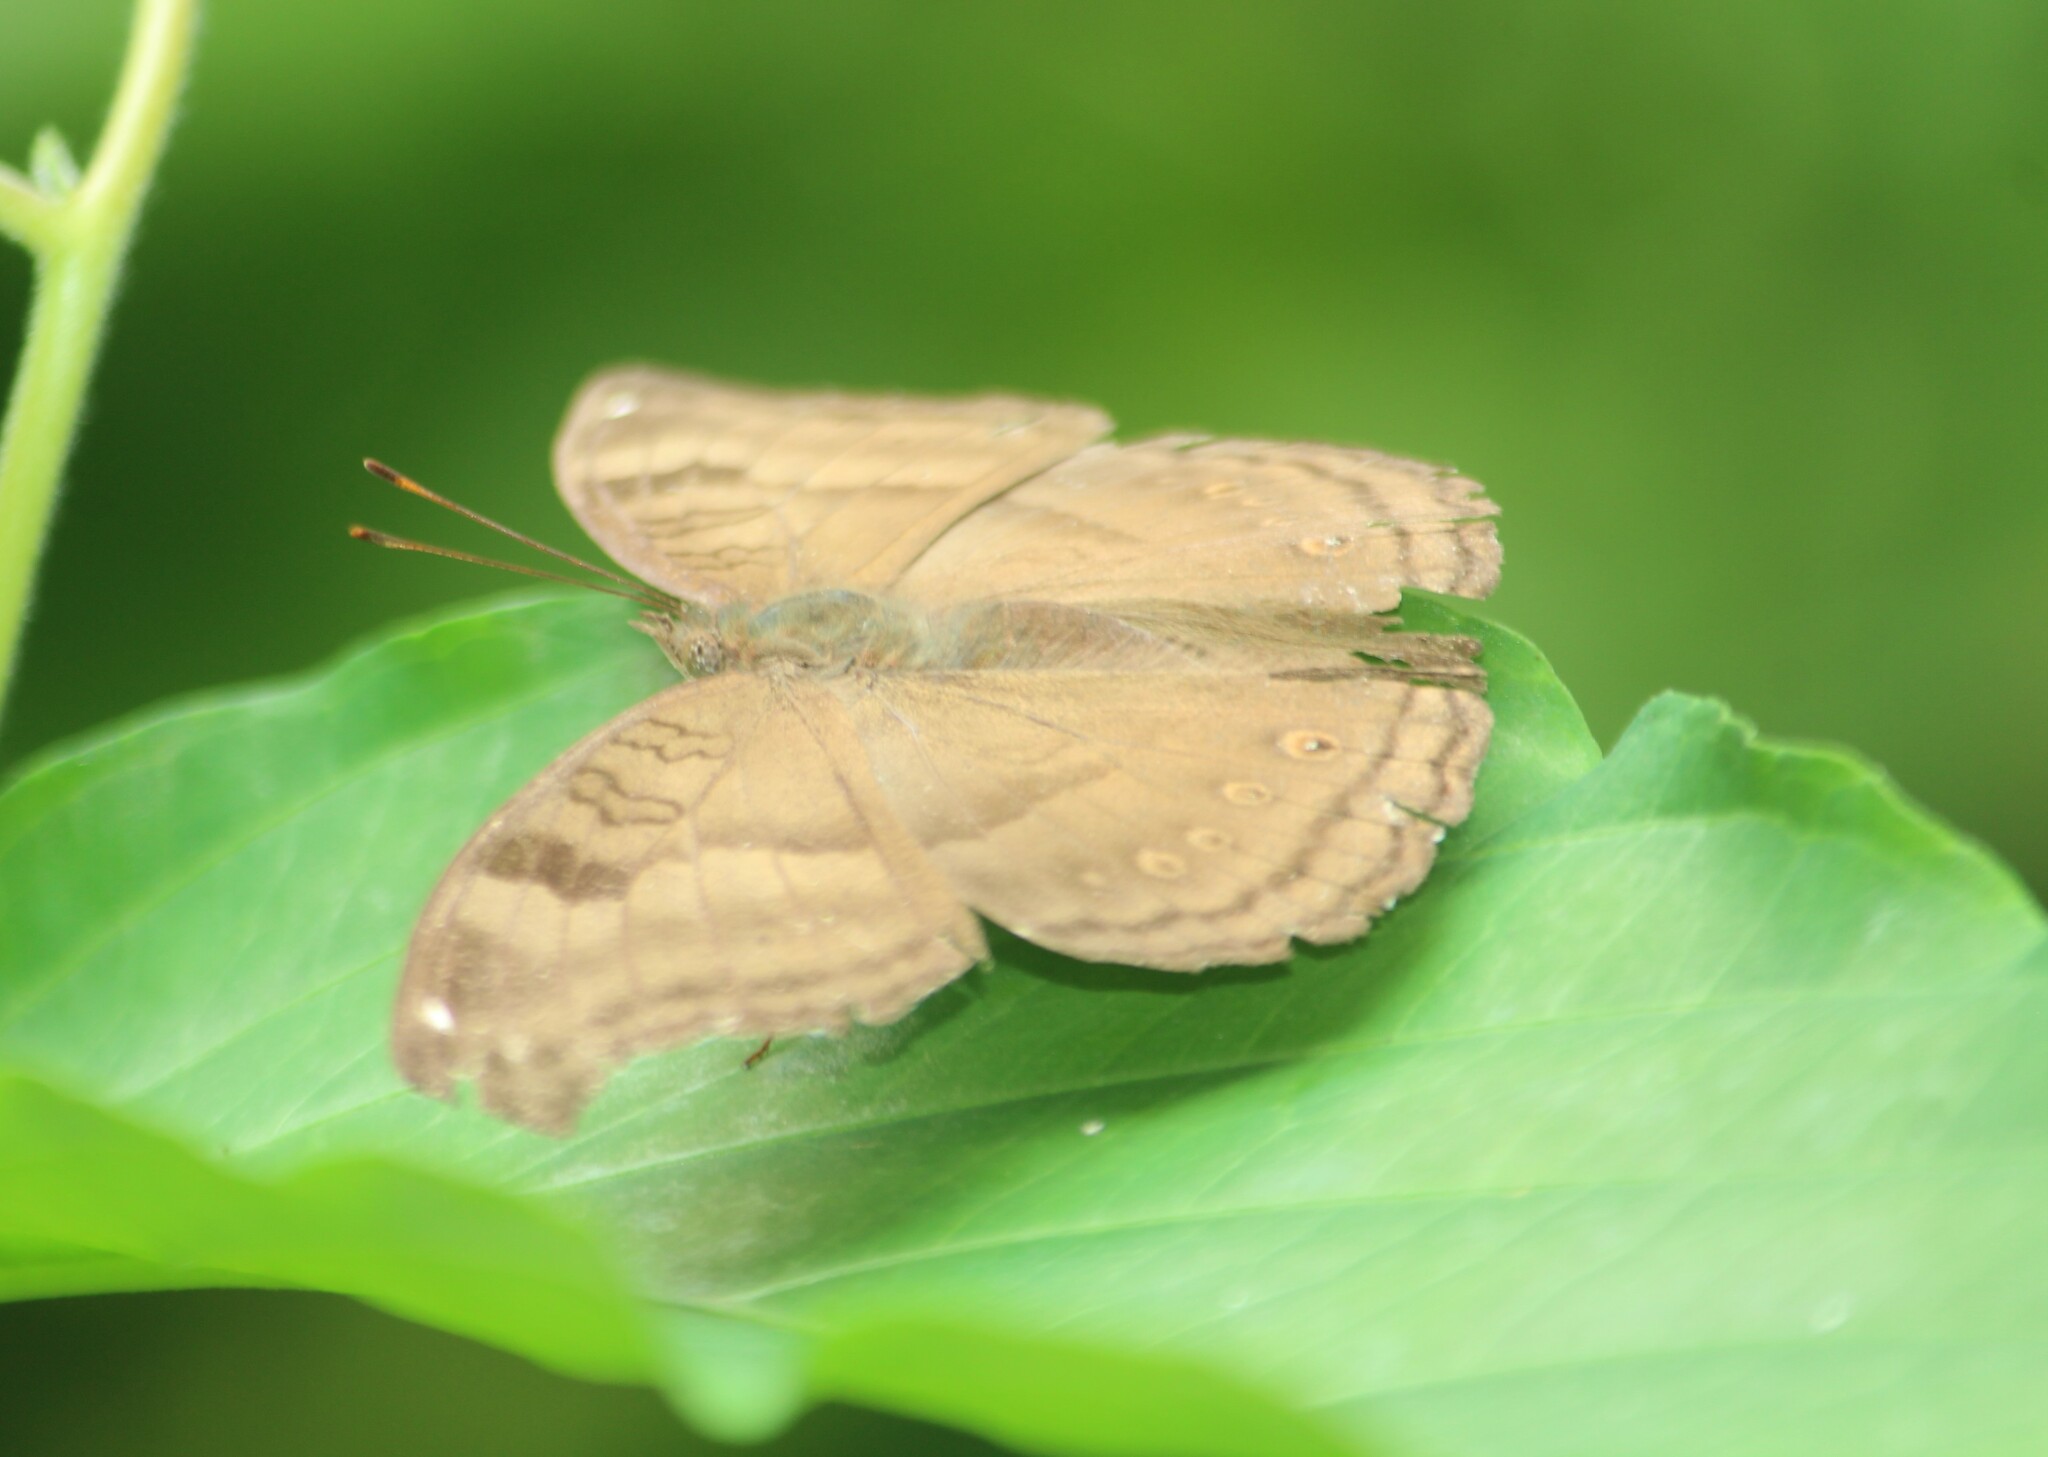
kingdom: Animalia
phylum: Arthropoda
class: Insecta
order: Lepidoptera
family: Nymphalidae
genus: Junonia
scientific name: Junonia iphita
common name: Chocolate pansy
